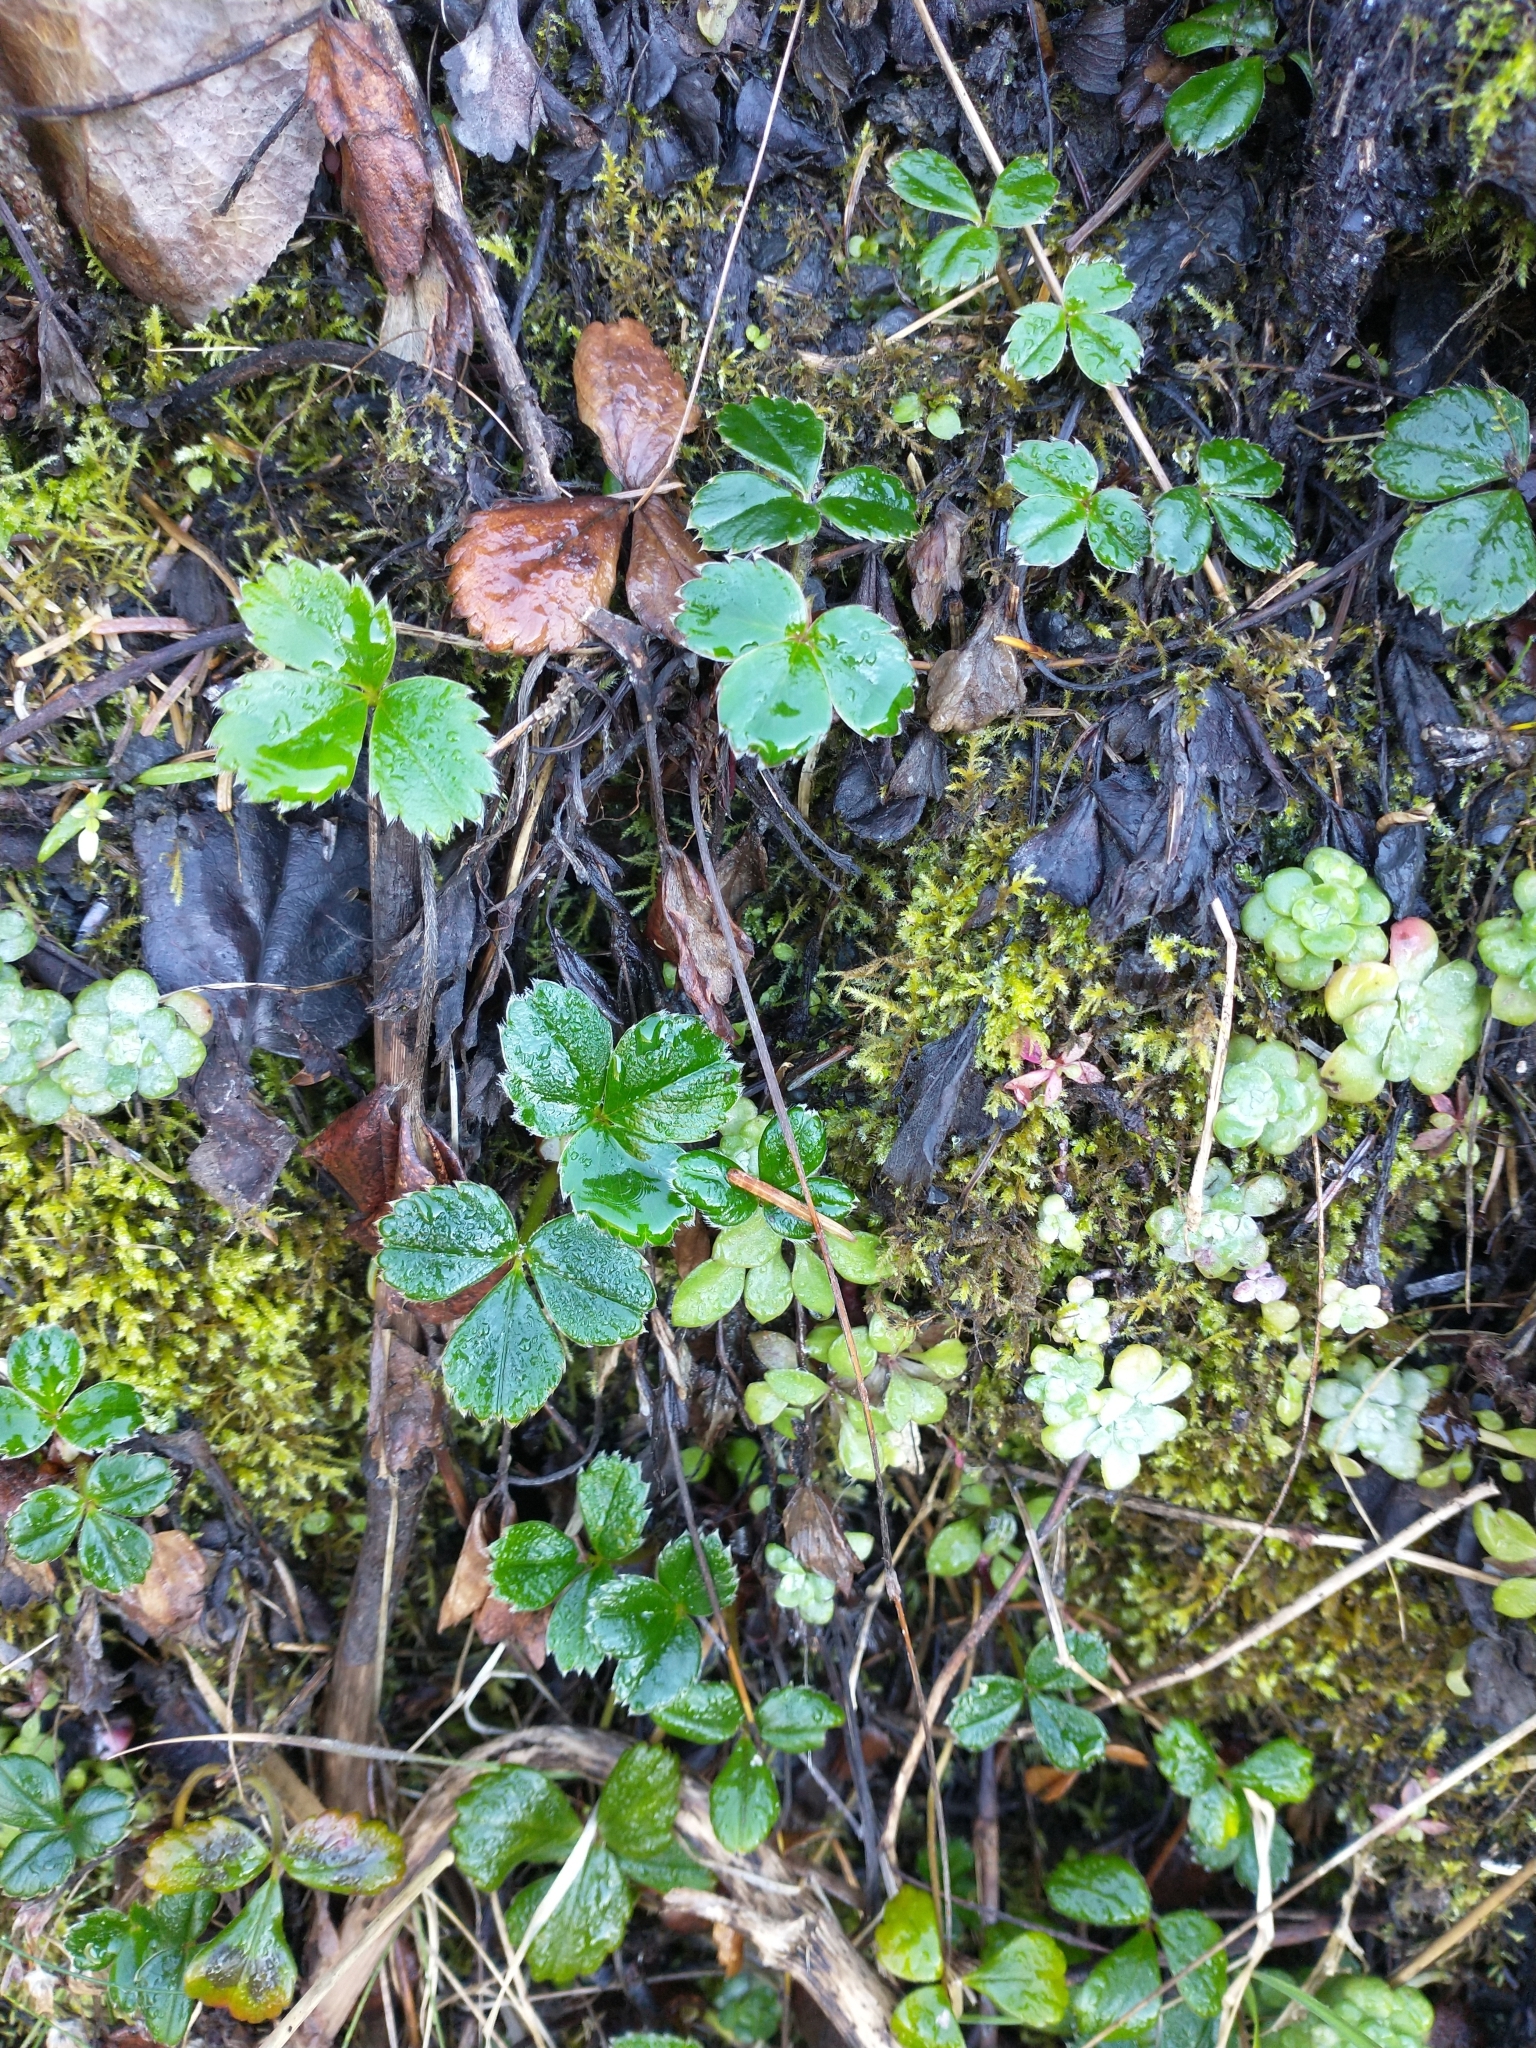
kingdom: Plantae
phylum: Tracheophyta
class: Magnoliopsida
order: Rosales
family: Rosaceae
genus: Fragaria
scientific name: Fragaria chiloensis
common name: Beach strawberry
